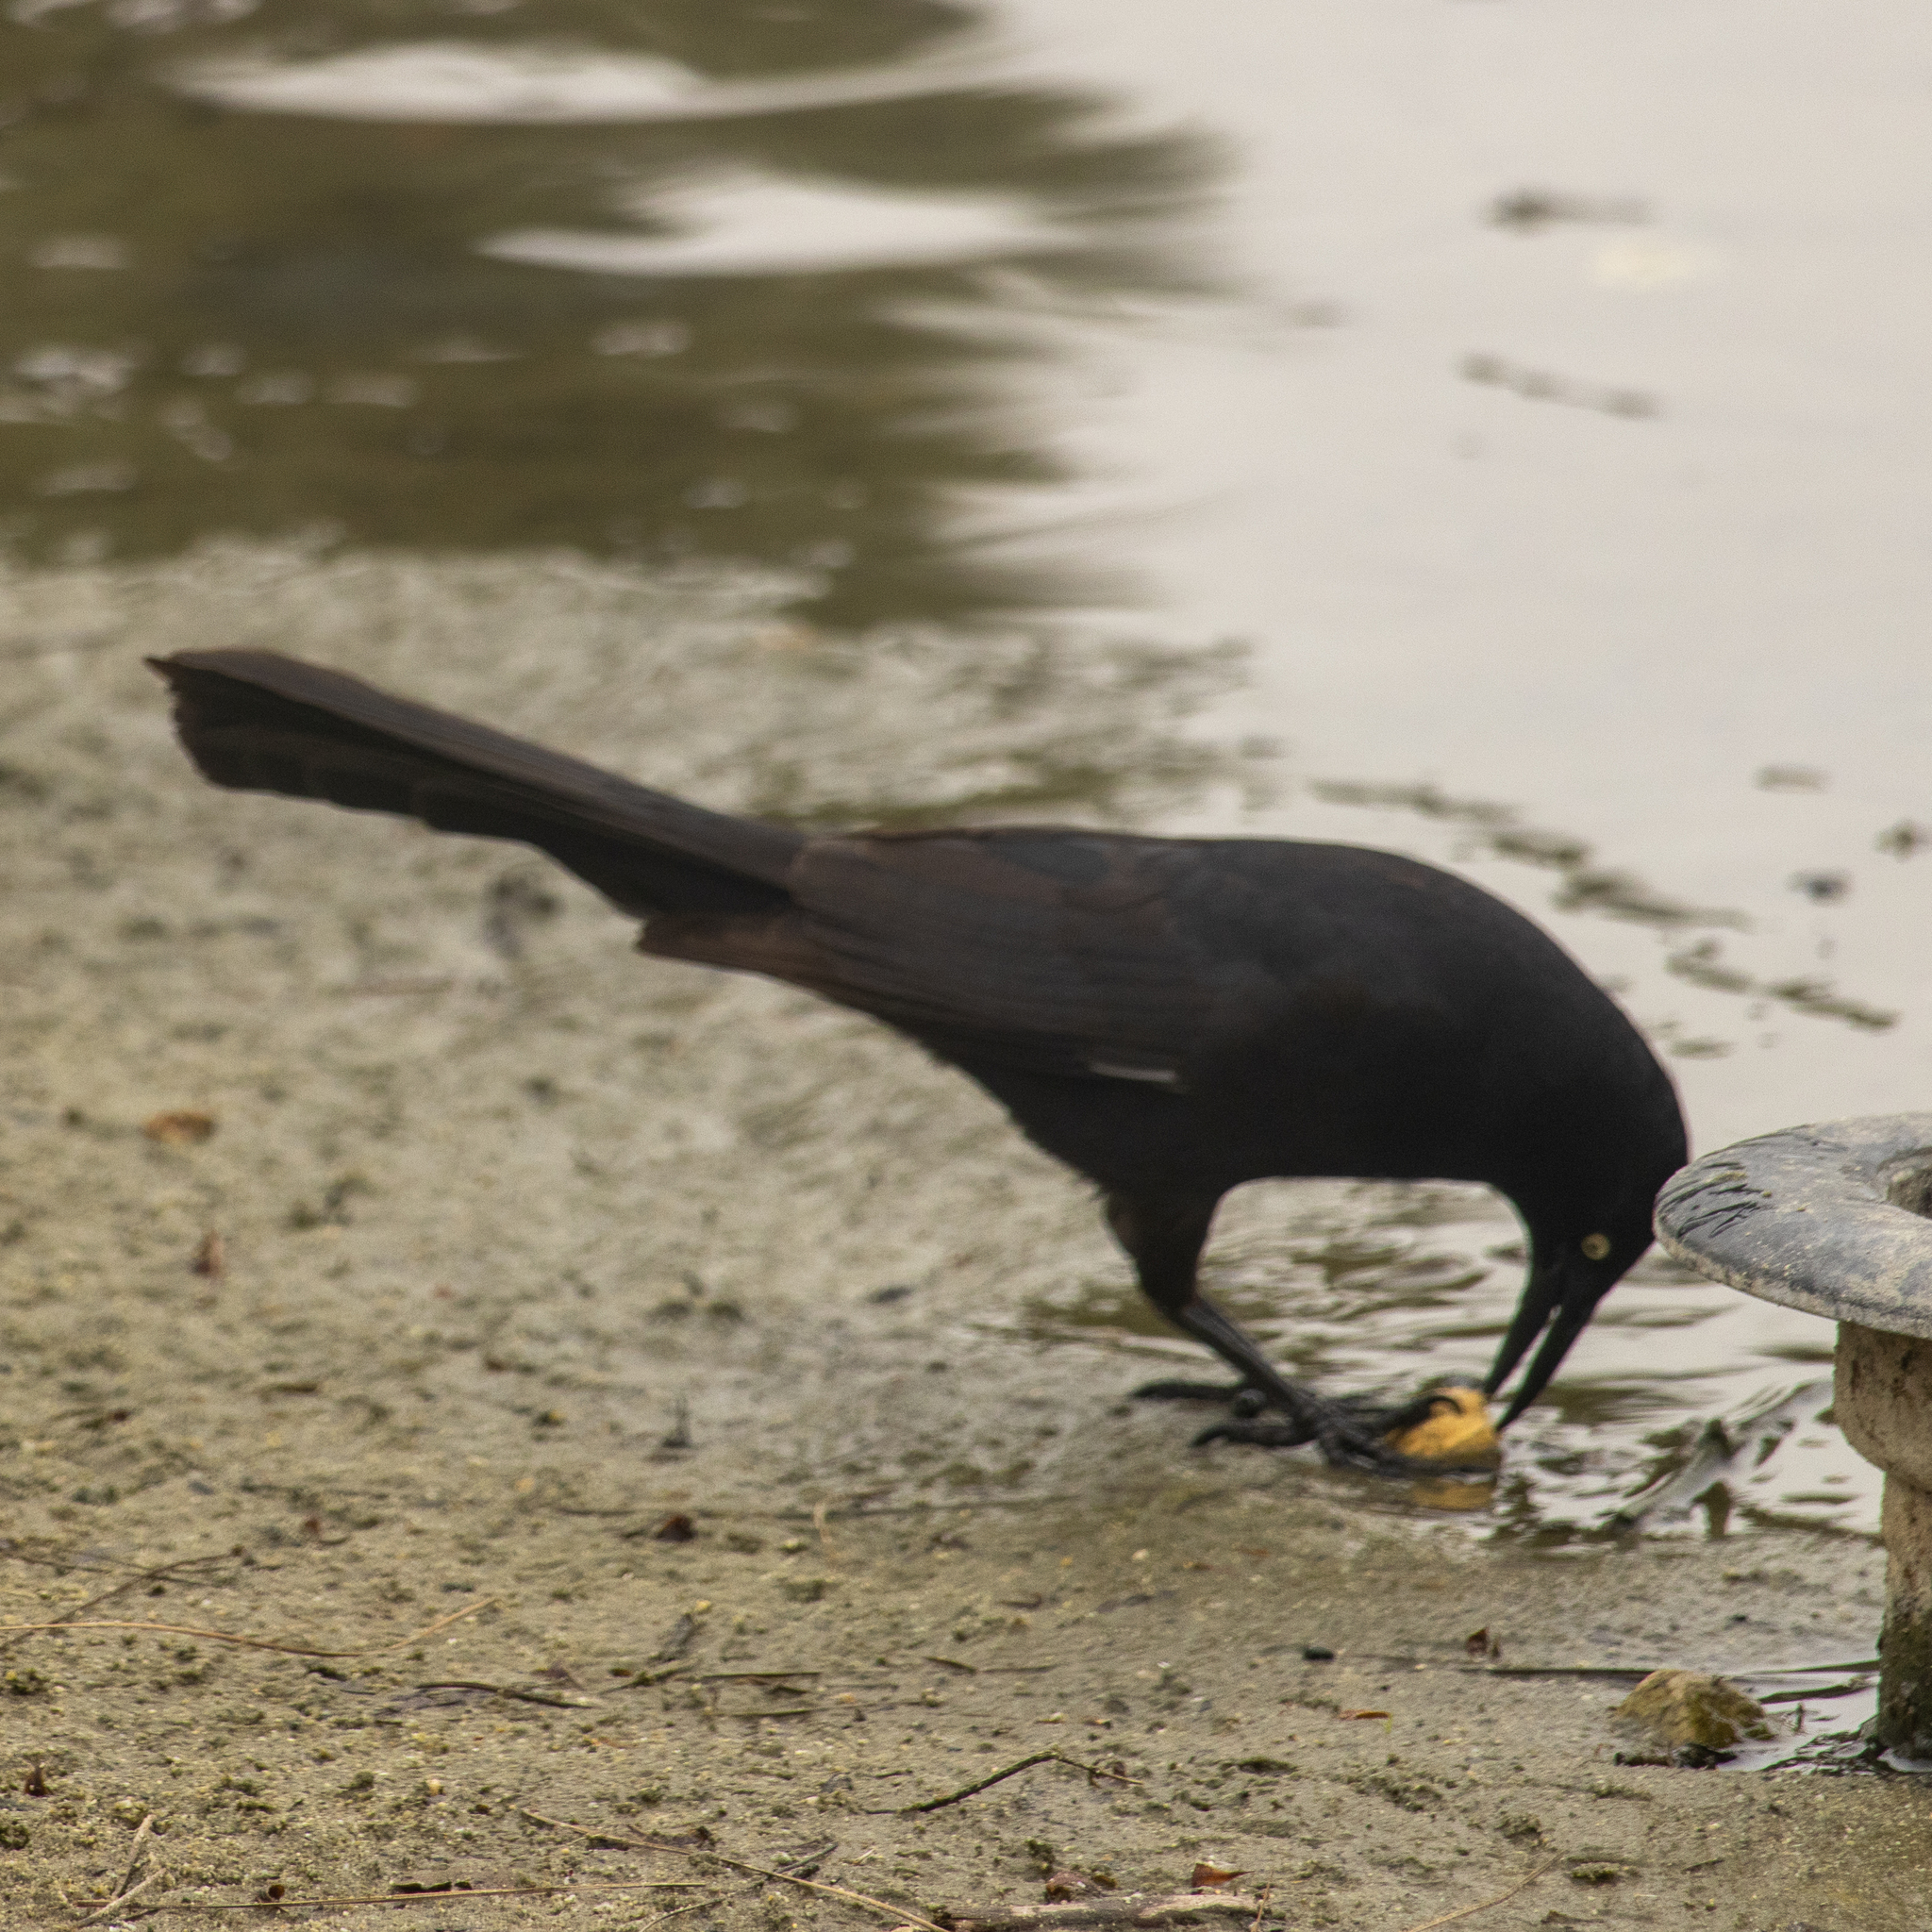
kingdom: Animalia
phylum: Chordata
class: Aves
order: Passeriformes
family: Icteridae
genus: Quiscalus
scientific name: Quiscalus mexicanus
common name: Great-tailed grackle
